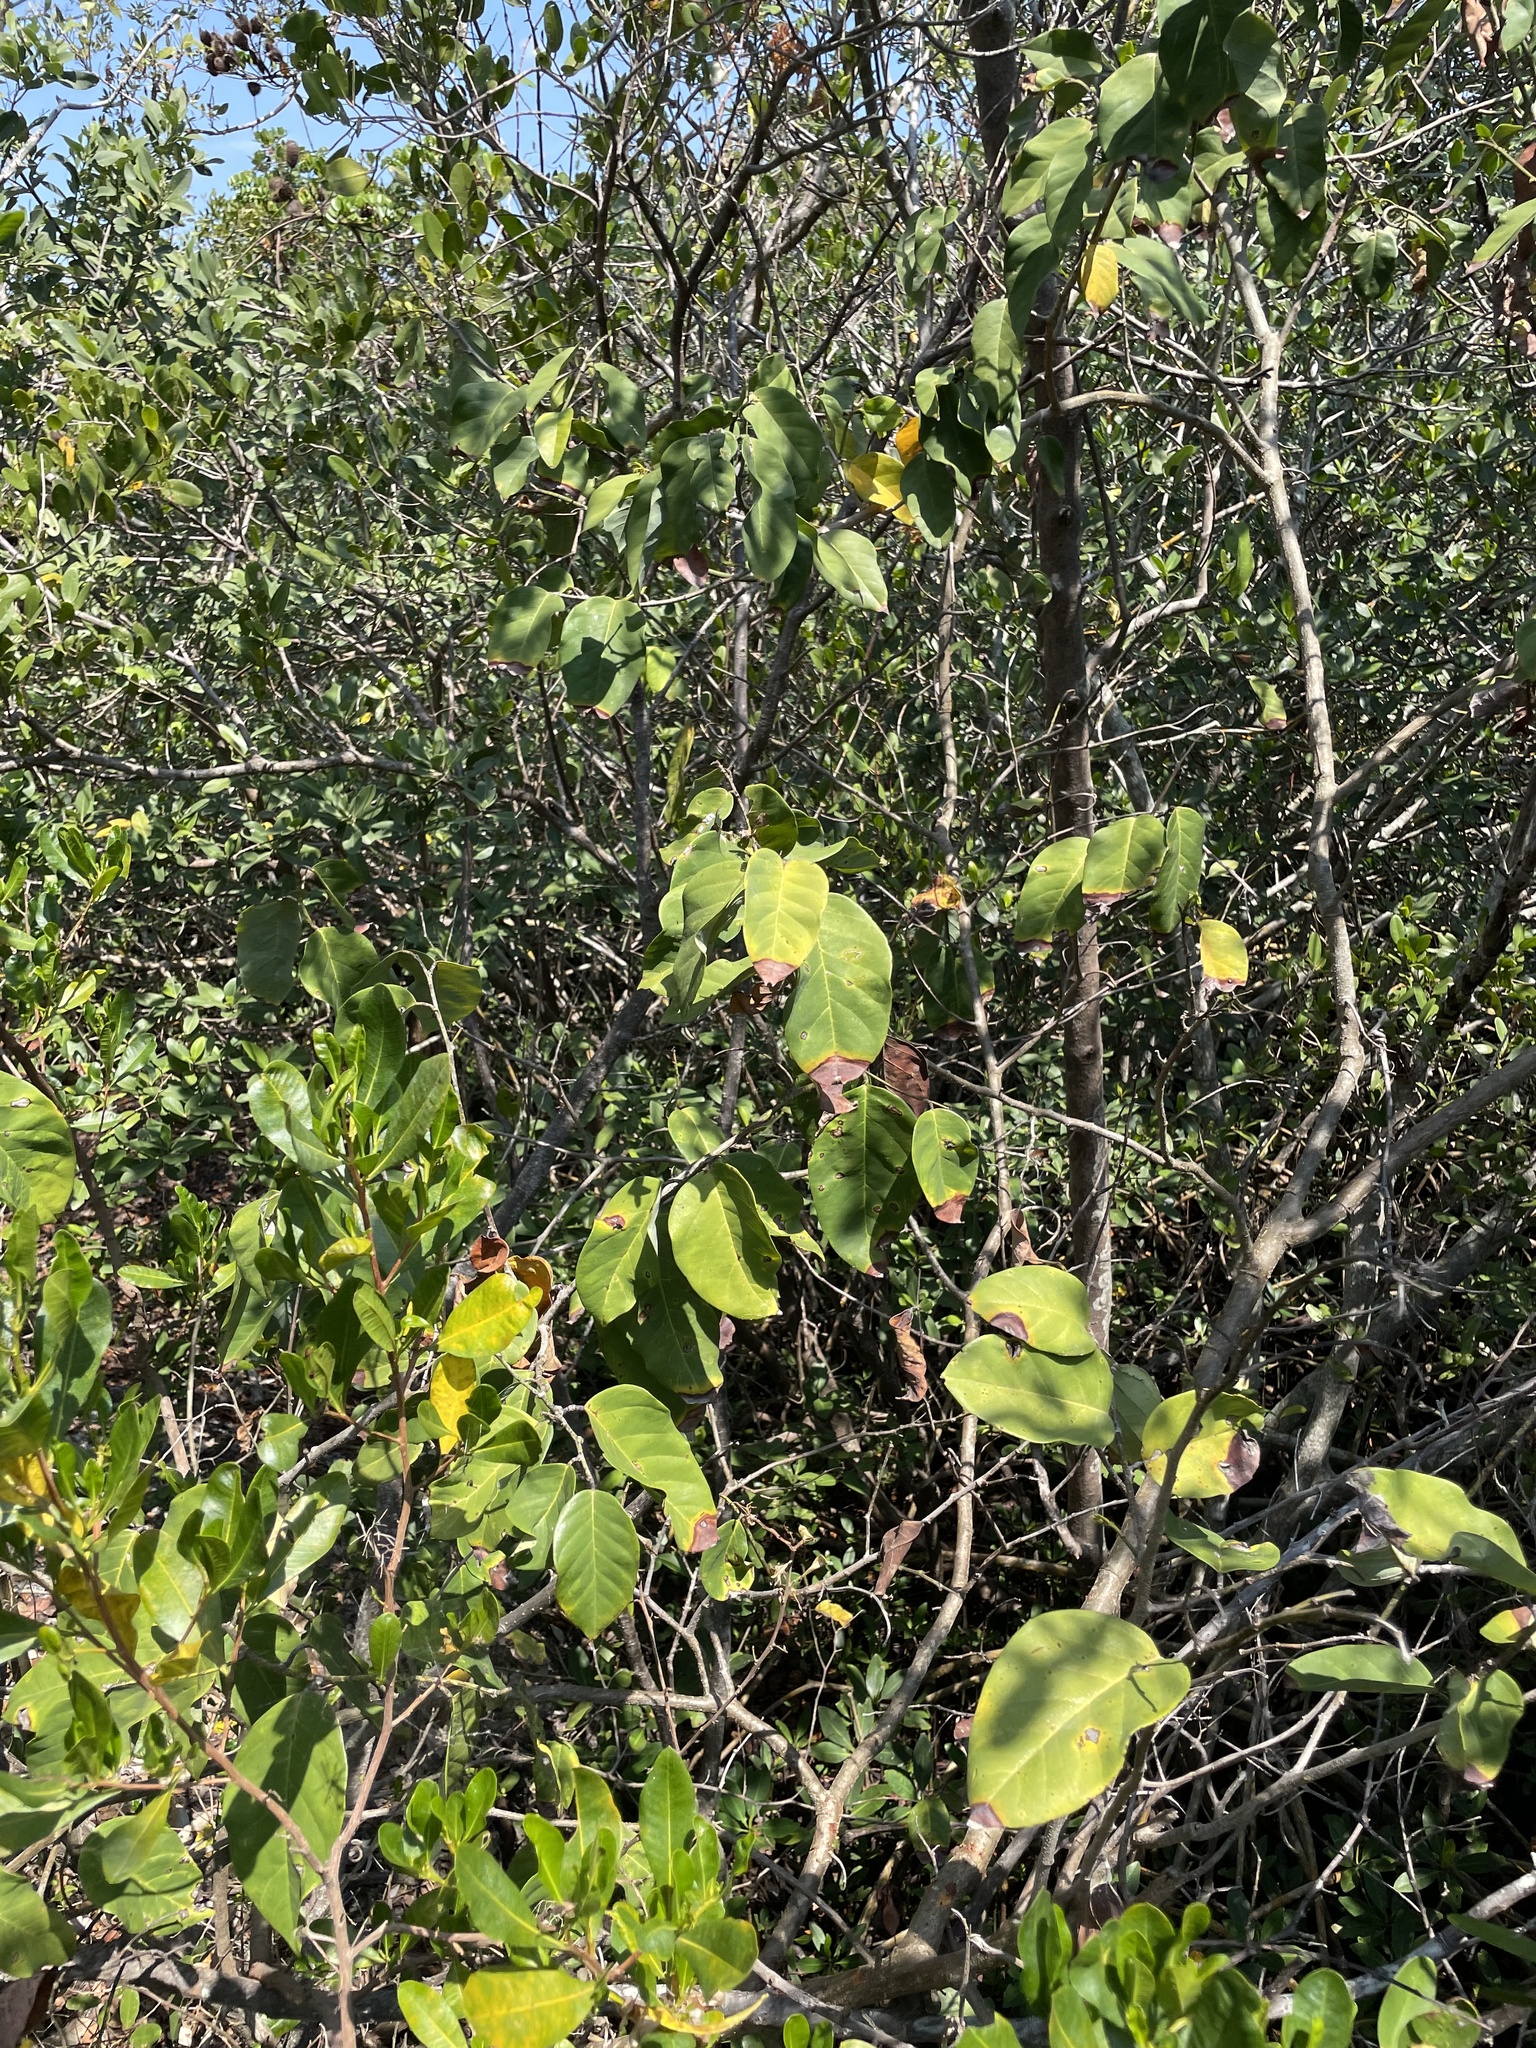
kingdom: Plantae
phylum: Tracheophyta
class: Magnoliopsida
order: Fabales
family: Fabaceae
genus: Dalbergia
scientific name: Dalbergia ecastaphyllum
